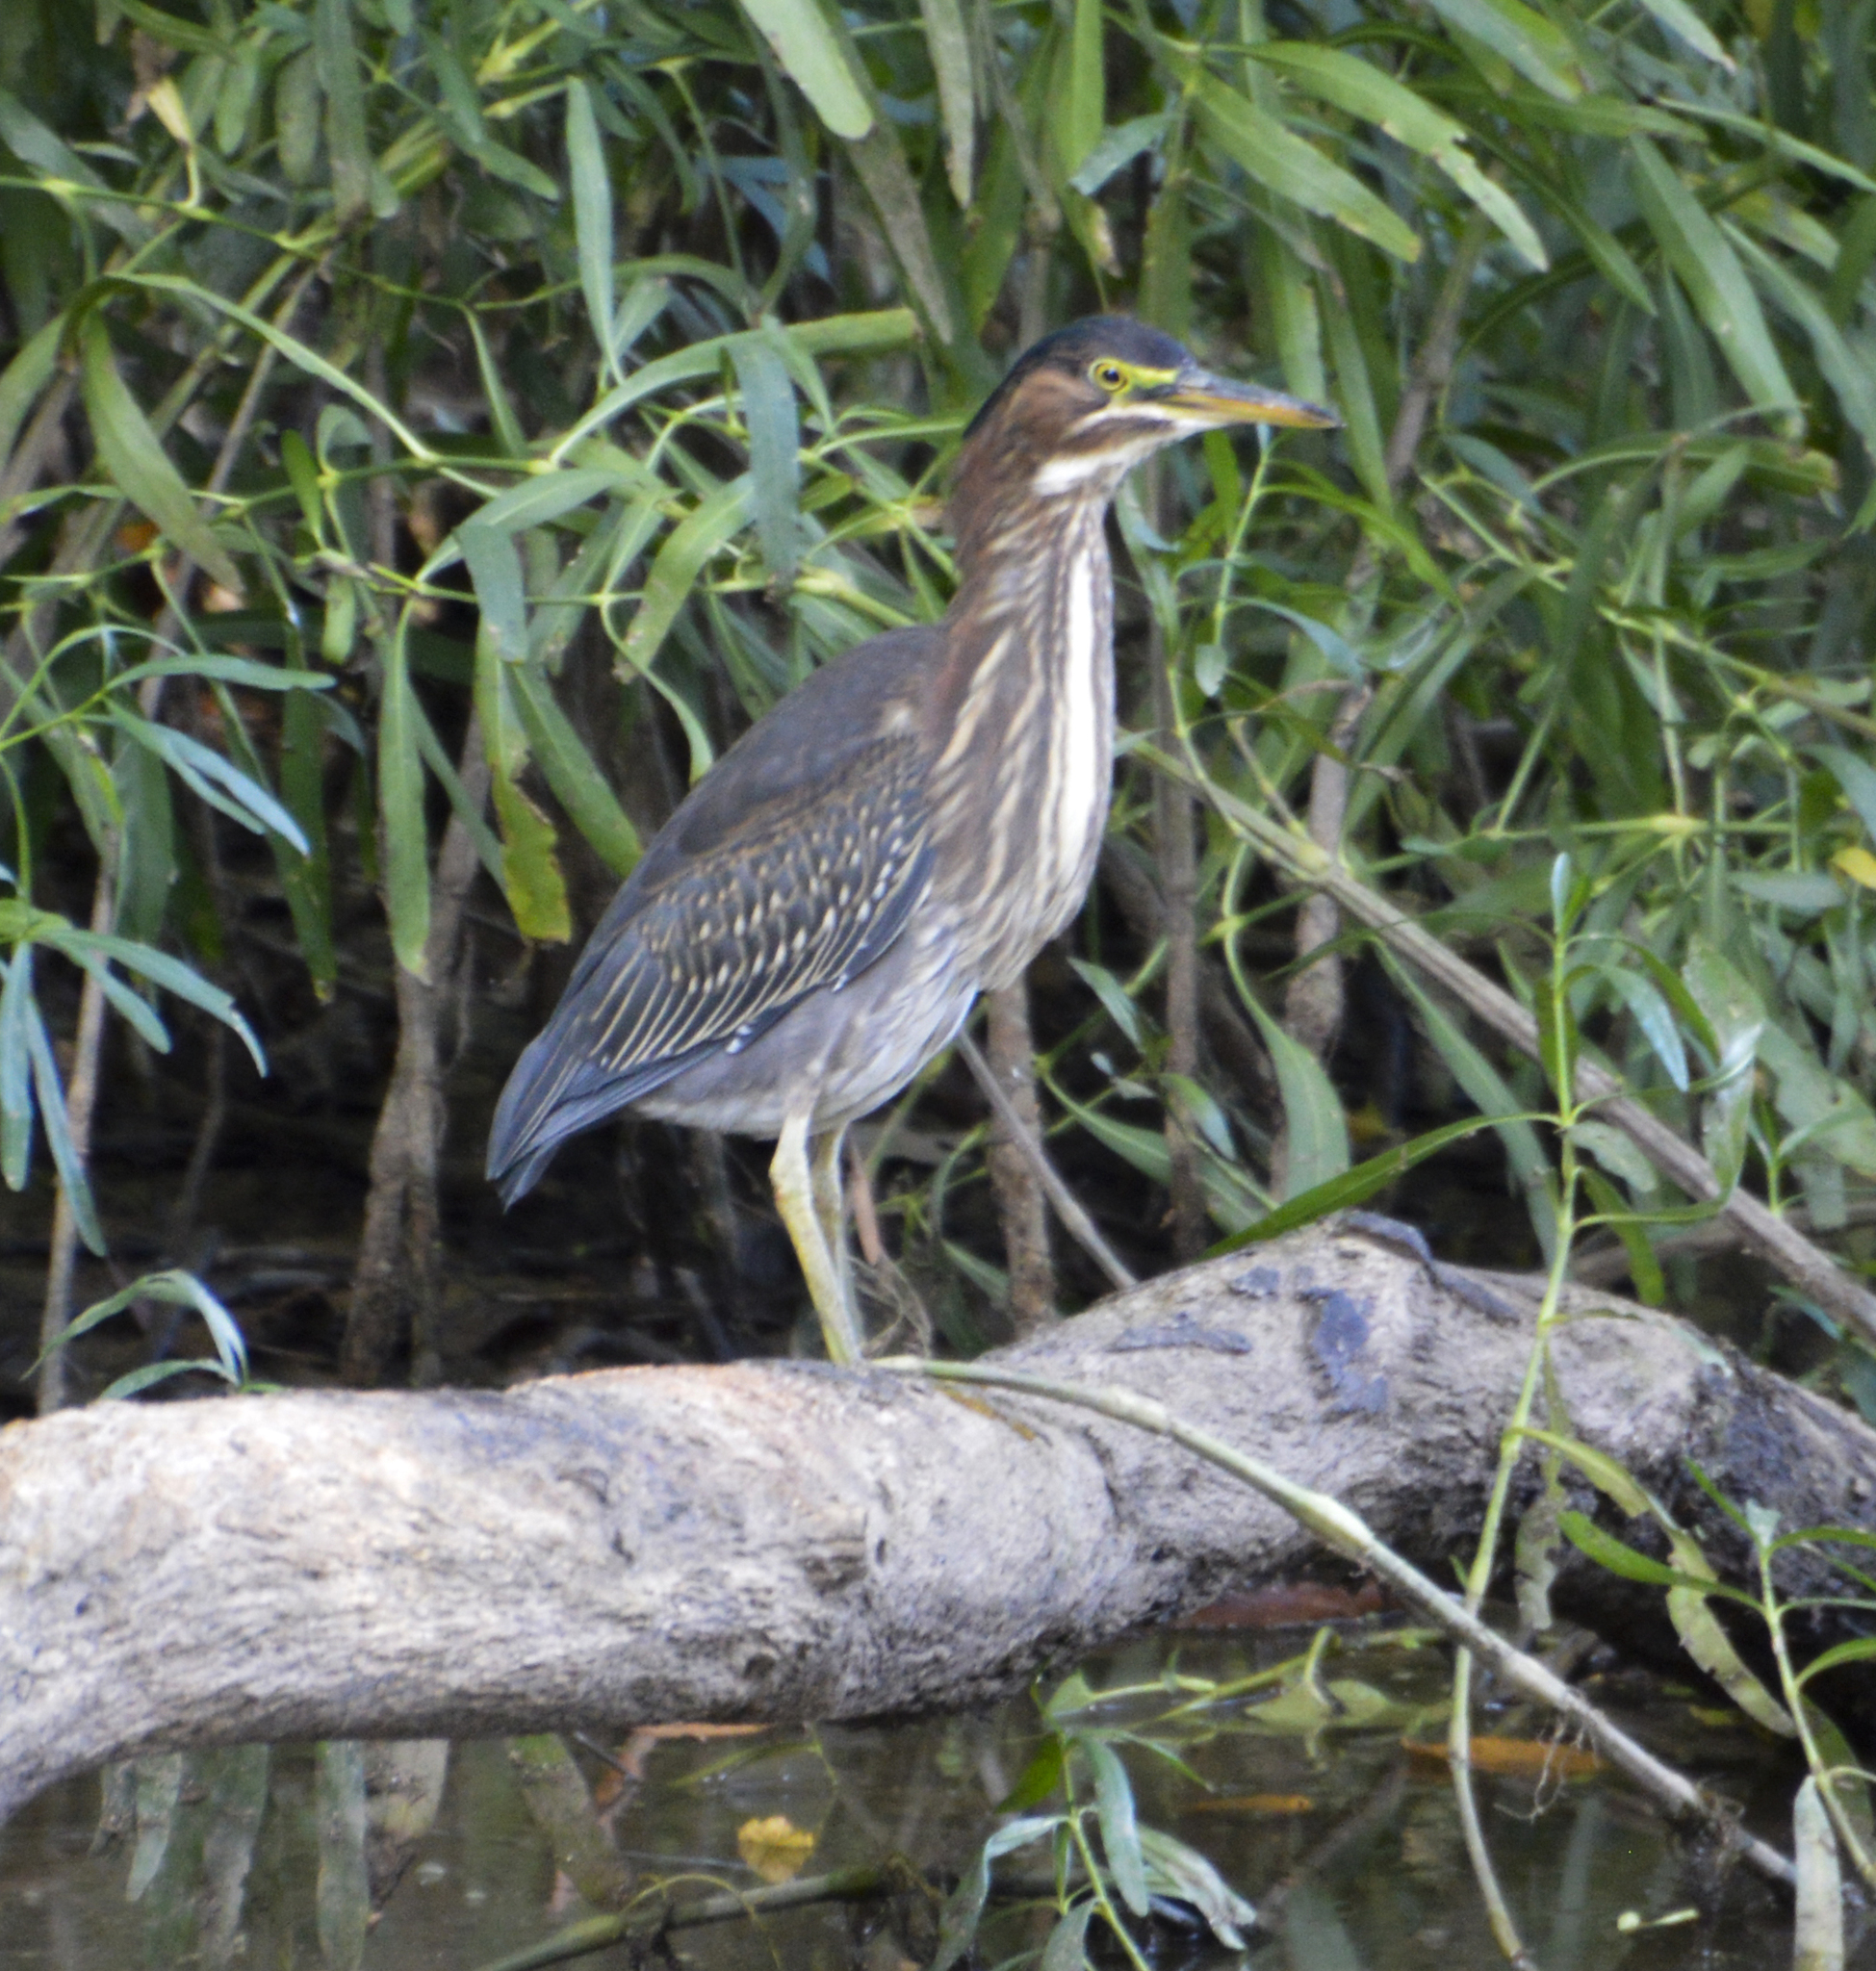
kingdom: Animalia
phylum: Chordata
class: Aves
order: Pelecaniformes
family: Ardeidae
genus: Butorides
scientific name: Butorides virescens
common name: Green heron
